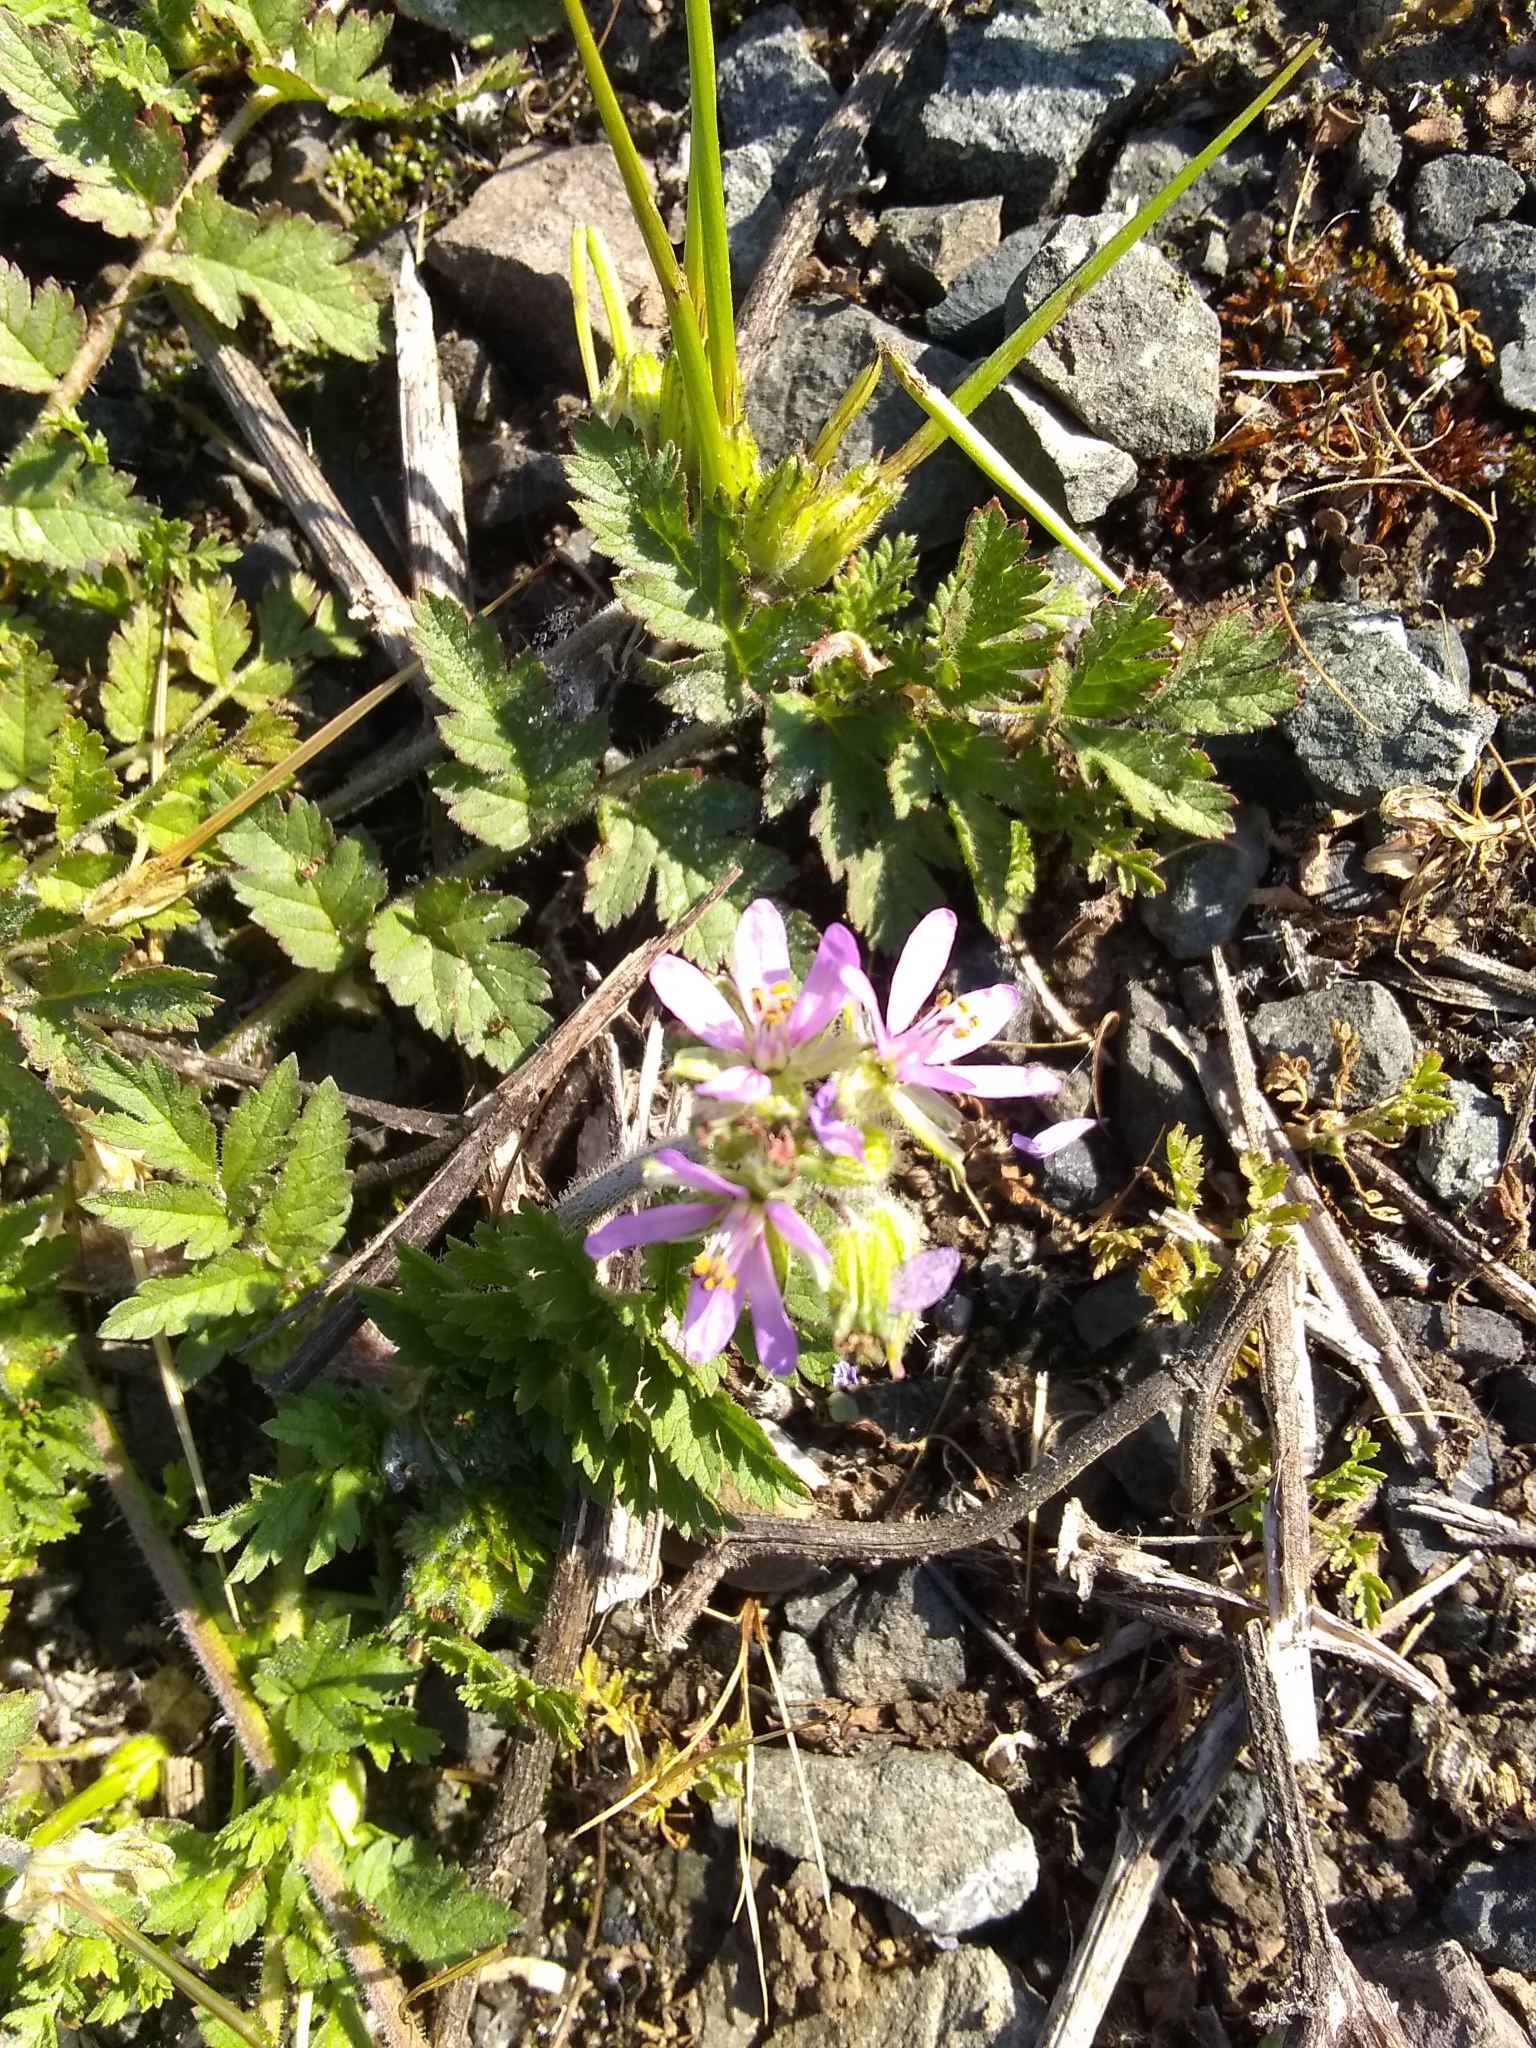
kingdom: Plantae
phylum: Tracheophyta
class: Magnoliopsida
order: Geraniales
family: Geraniaceae
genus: Erodium
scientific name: Erodium moschatum
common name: Musk stork's-bill
